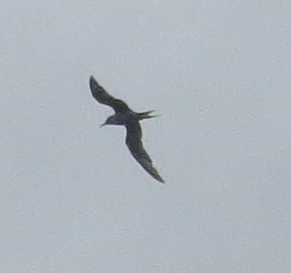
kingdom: Animalia
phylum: Chordata
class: Aves
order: Charadriiformes
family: Laridae
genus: Sterna
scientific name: Sterna trudeaui
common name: Snowy-crowned tern
